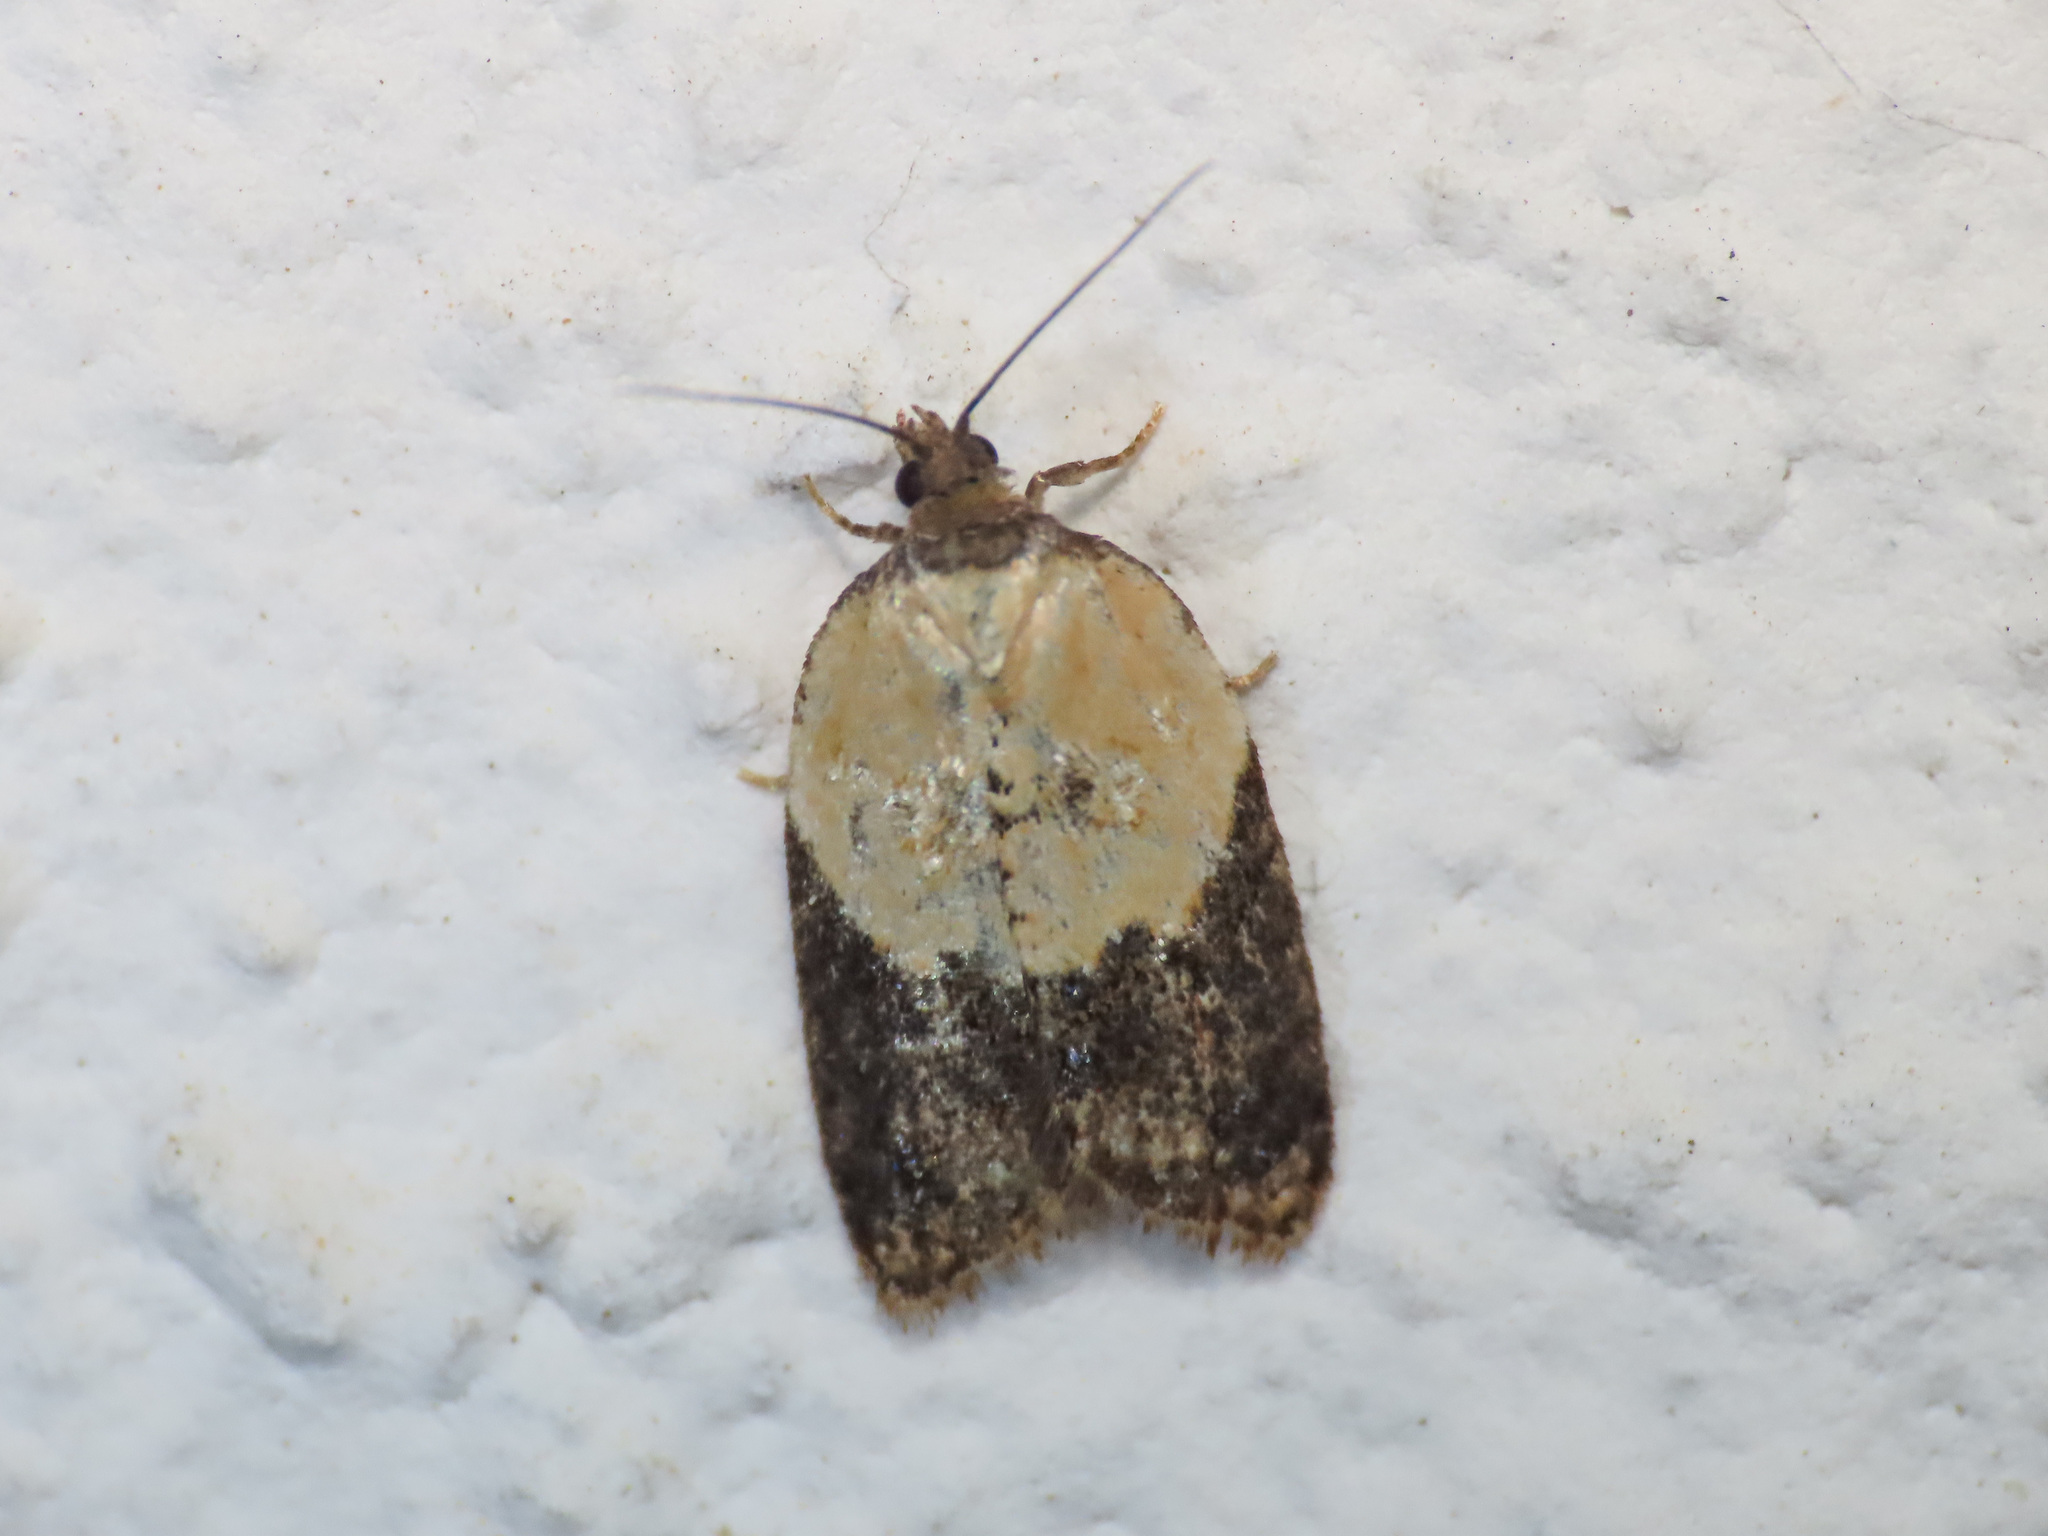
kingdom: Animalia
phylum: Arthropoda
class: Insecta
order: Lepidoptera
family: Tortricidae
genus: Acleris
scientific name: Acleris variegana
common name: Garden rose tortrix
